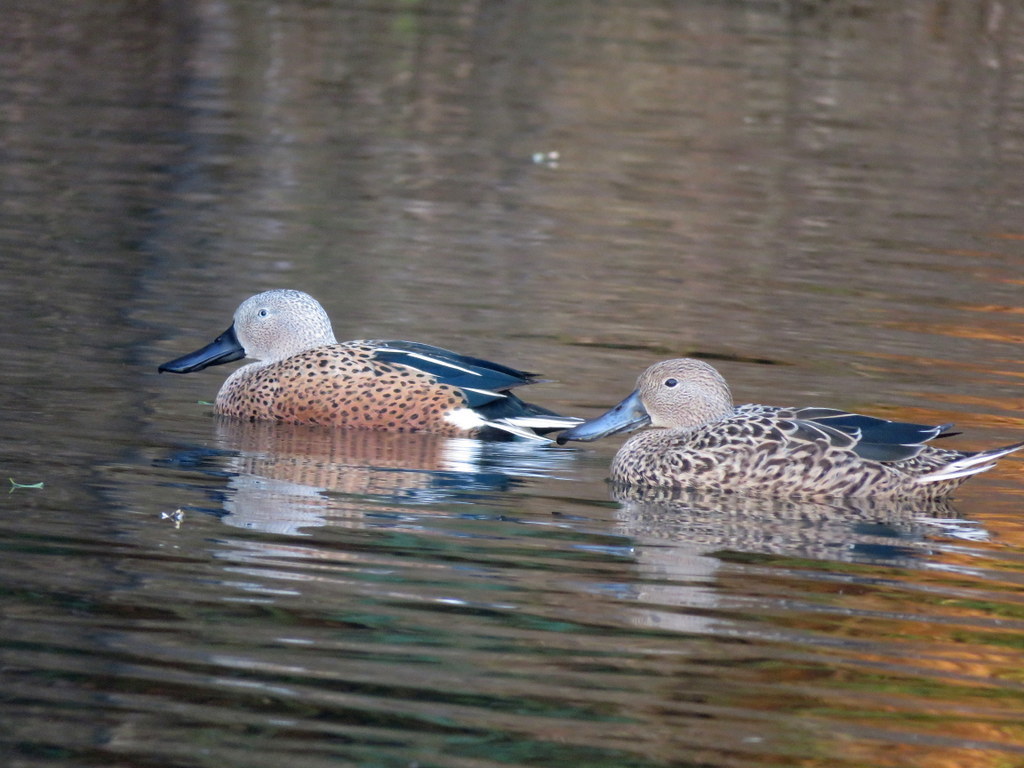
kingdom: Animalia
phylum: Chordata
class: Aves
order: Anseriformes
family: Anatidae
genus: Spatula
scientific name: Spatula platalea
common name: Red shoveler
